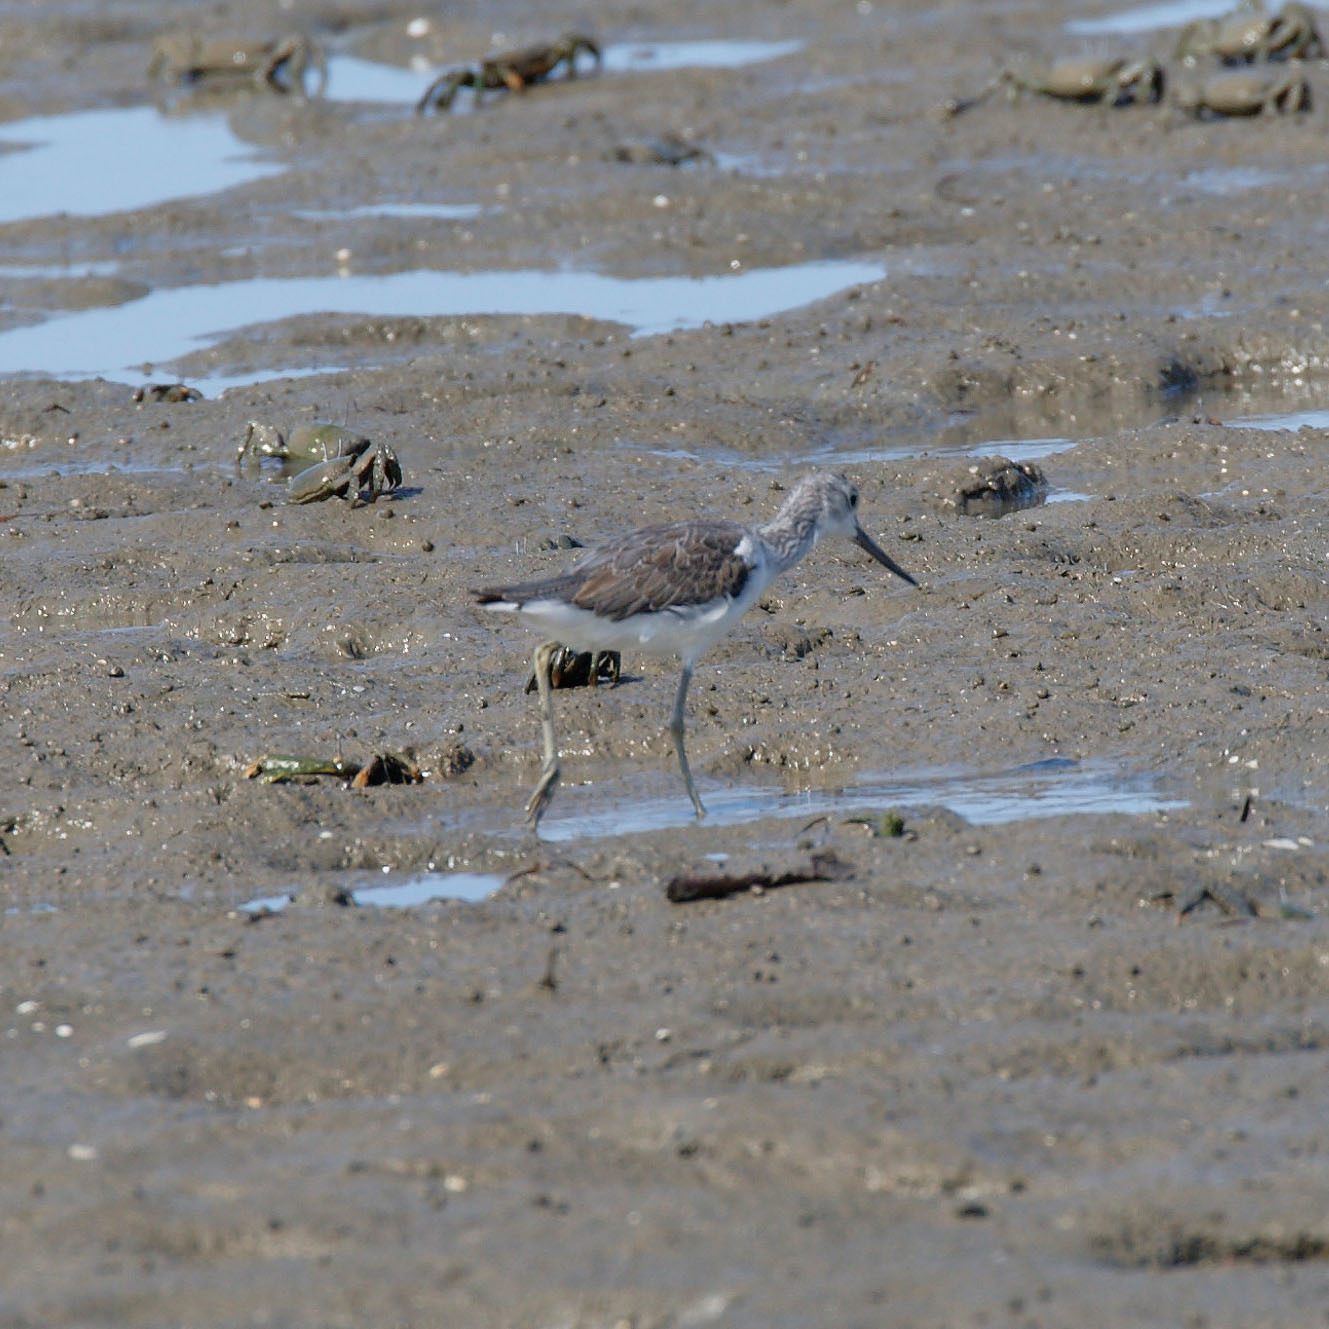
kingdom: Animalia
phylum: Chordata
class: Aves
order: Charadriiformes
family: Scolopacidae
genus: Tringa
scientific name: Tringa nebularia
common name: Common greenshank
